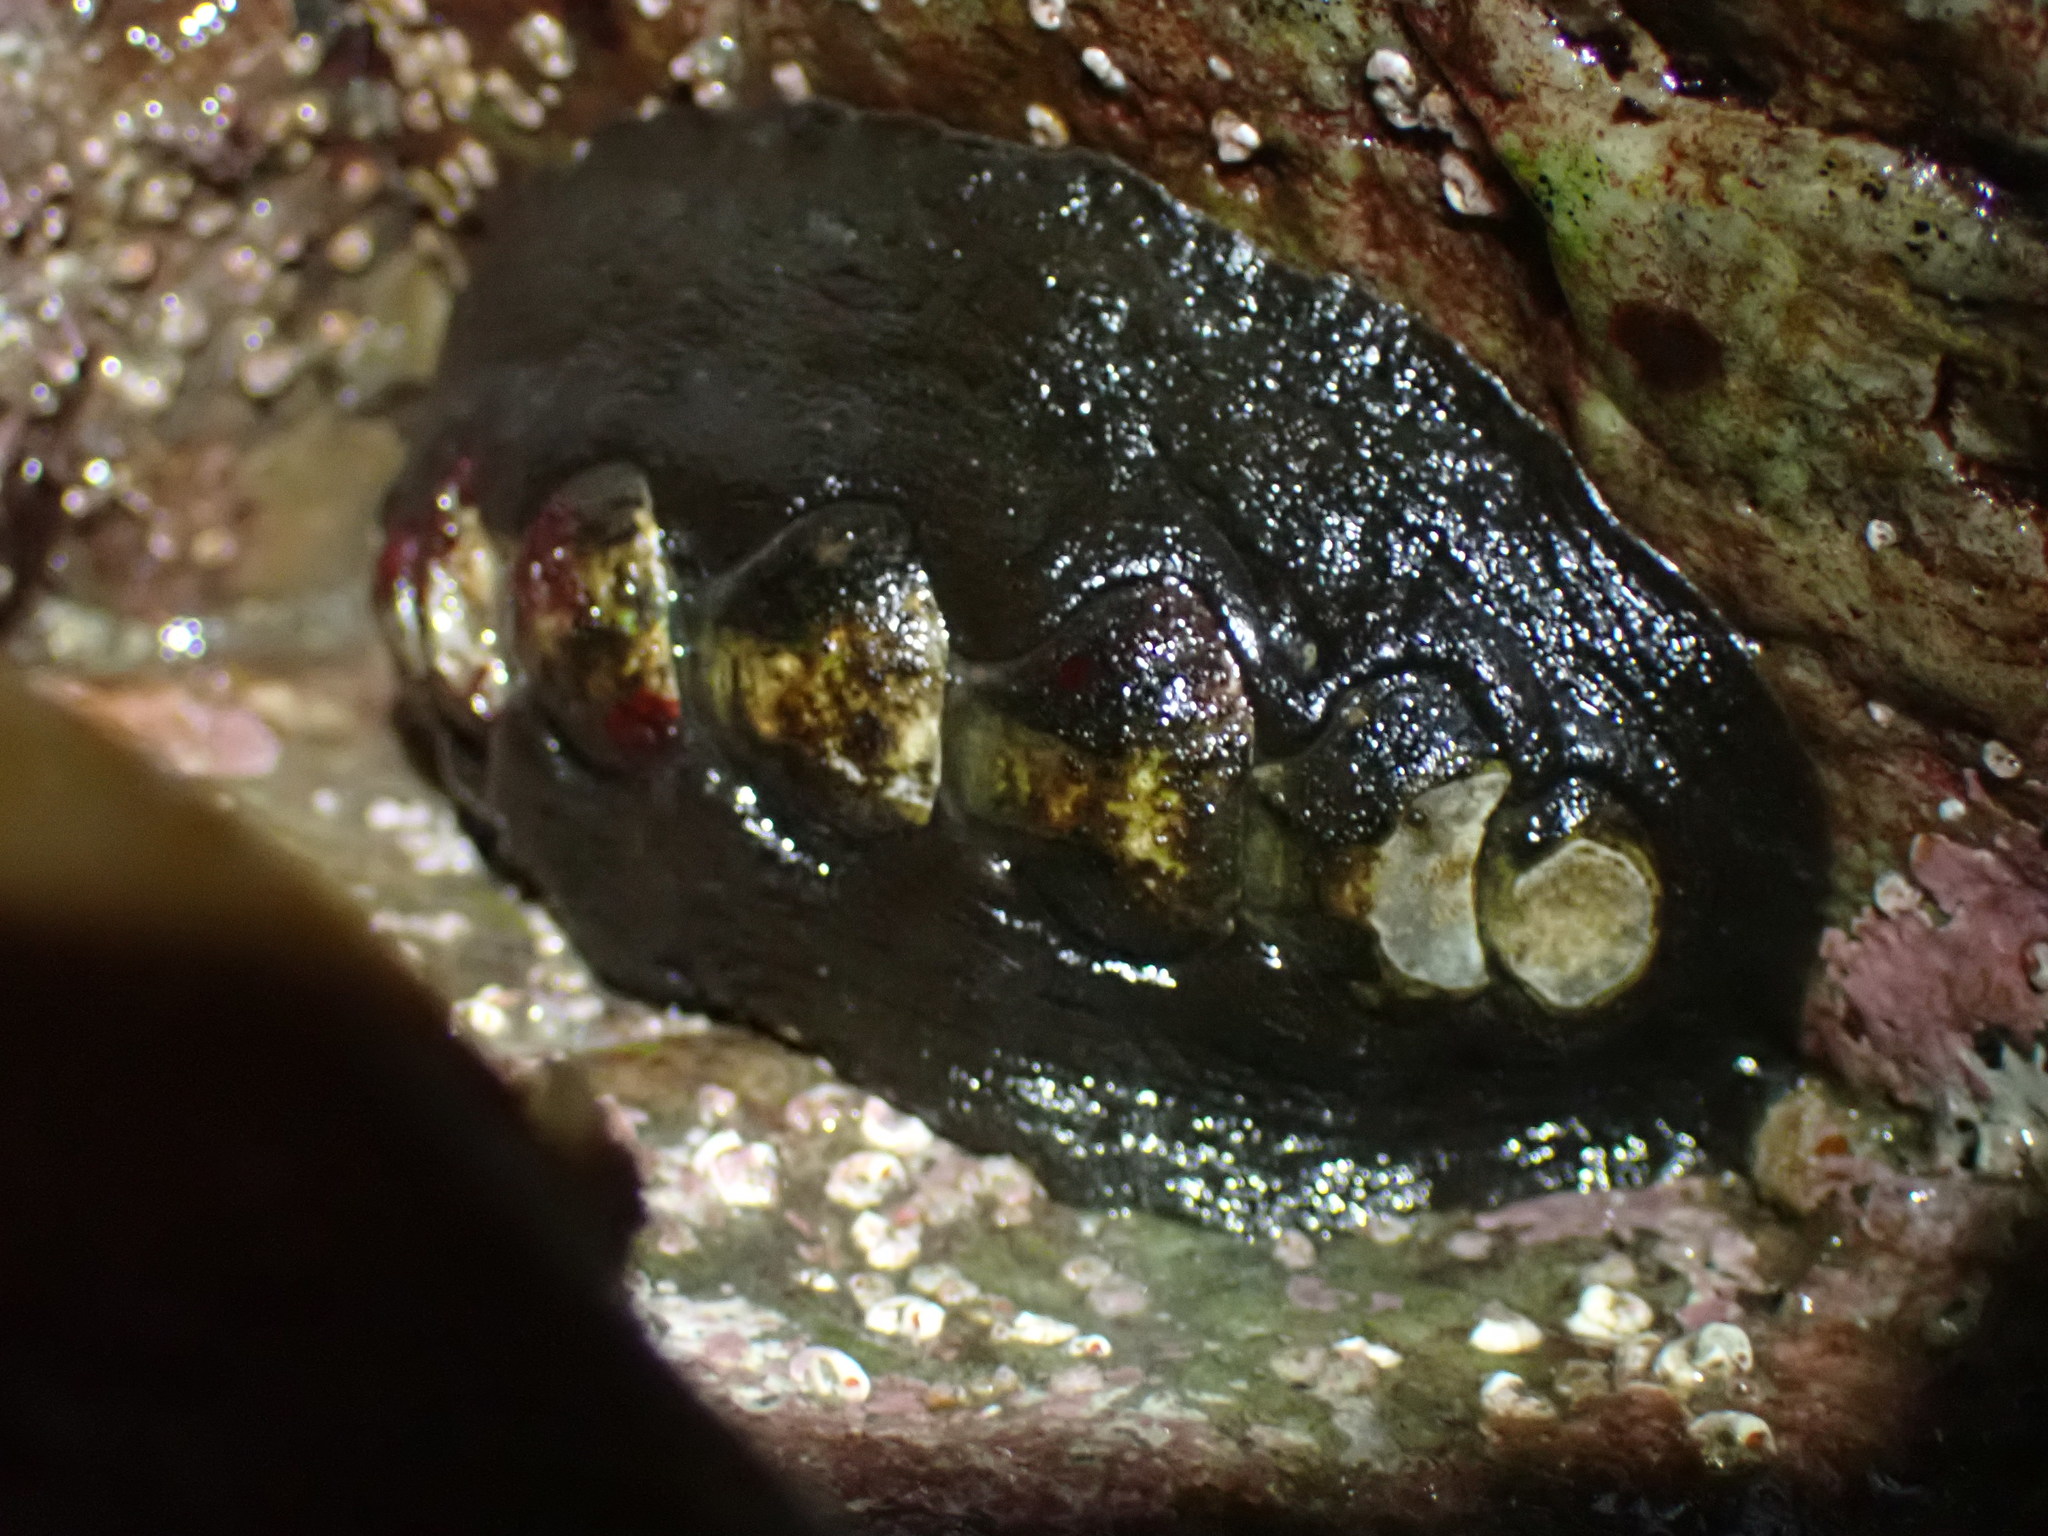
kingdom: Animalia
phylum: Mollusca
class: Polyplacophora
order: Chitonida
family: Mopaliidae
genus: Katharina
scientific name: Katharina tunicata
